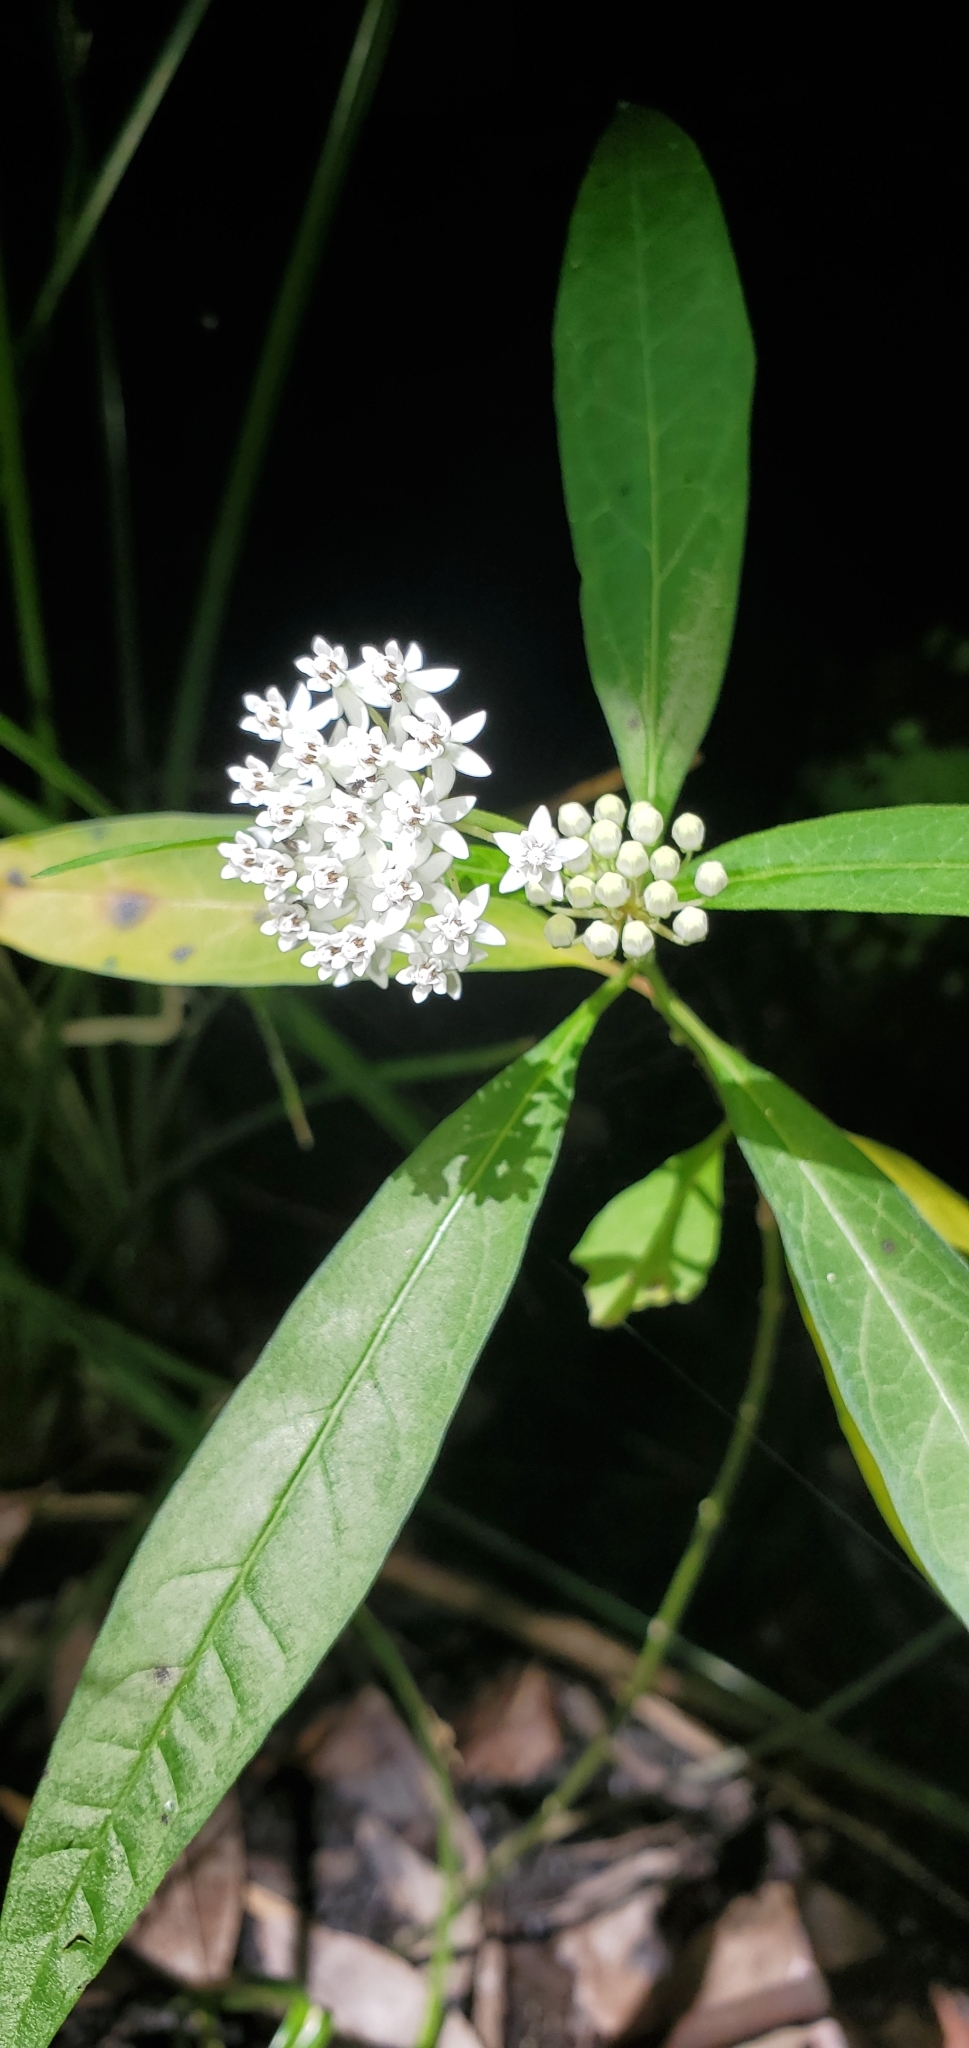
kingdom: Plantae
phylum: Tracheophyta
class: Magnoliopsida
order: Gentianales
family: Apocynaceae
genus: Asclepias
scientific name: Asclepias perennis
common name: Smooth-seed milkweed
